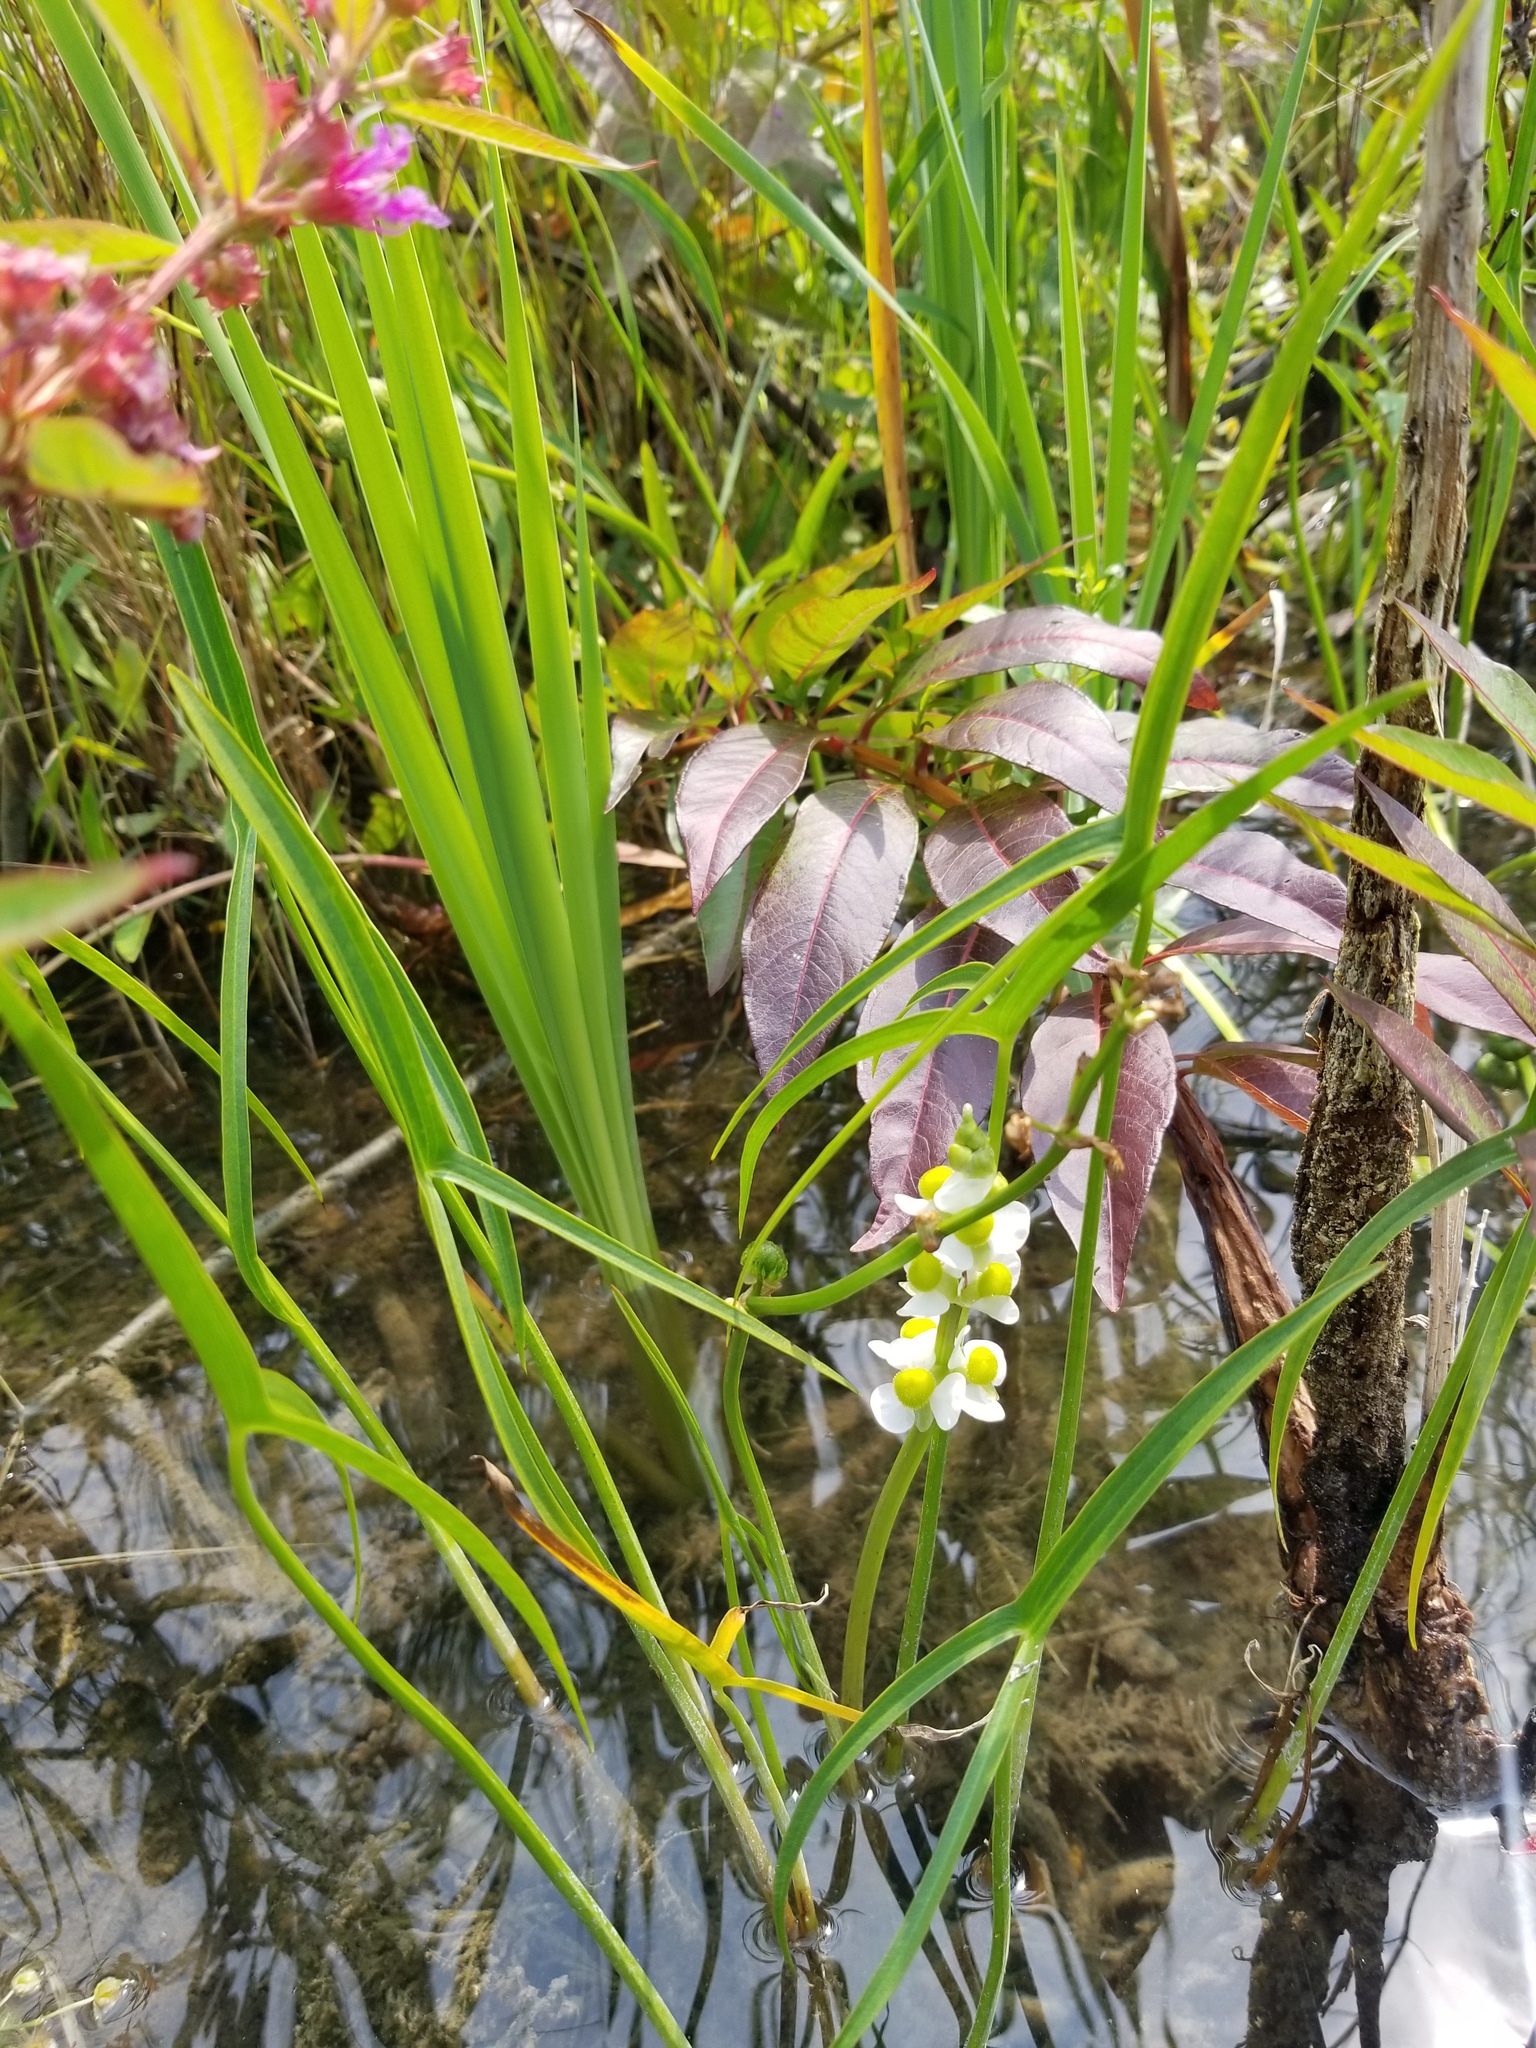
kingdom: Plantae
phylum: Tracheophyta
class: Liliopsida
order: Alismatales
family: Alismataceae
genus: Sagittaria
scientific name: Sagittaria latifolia
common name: Duck-potato
